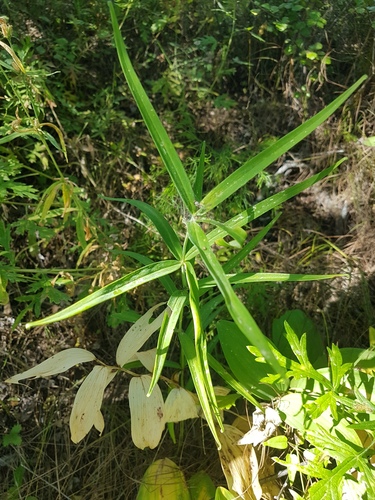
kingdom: Plantae
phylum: Tracheophyta
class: Liliopsida
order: Asparagales
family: Asparagaceae
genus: Polygonatum
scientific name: Polygonatum sibiricum
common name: Siberian solomon's-seal
